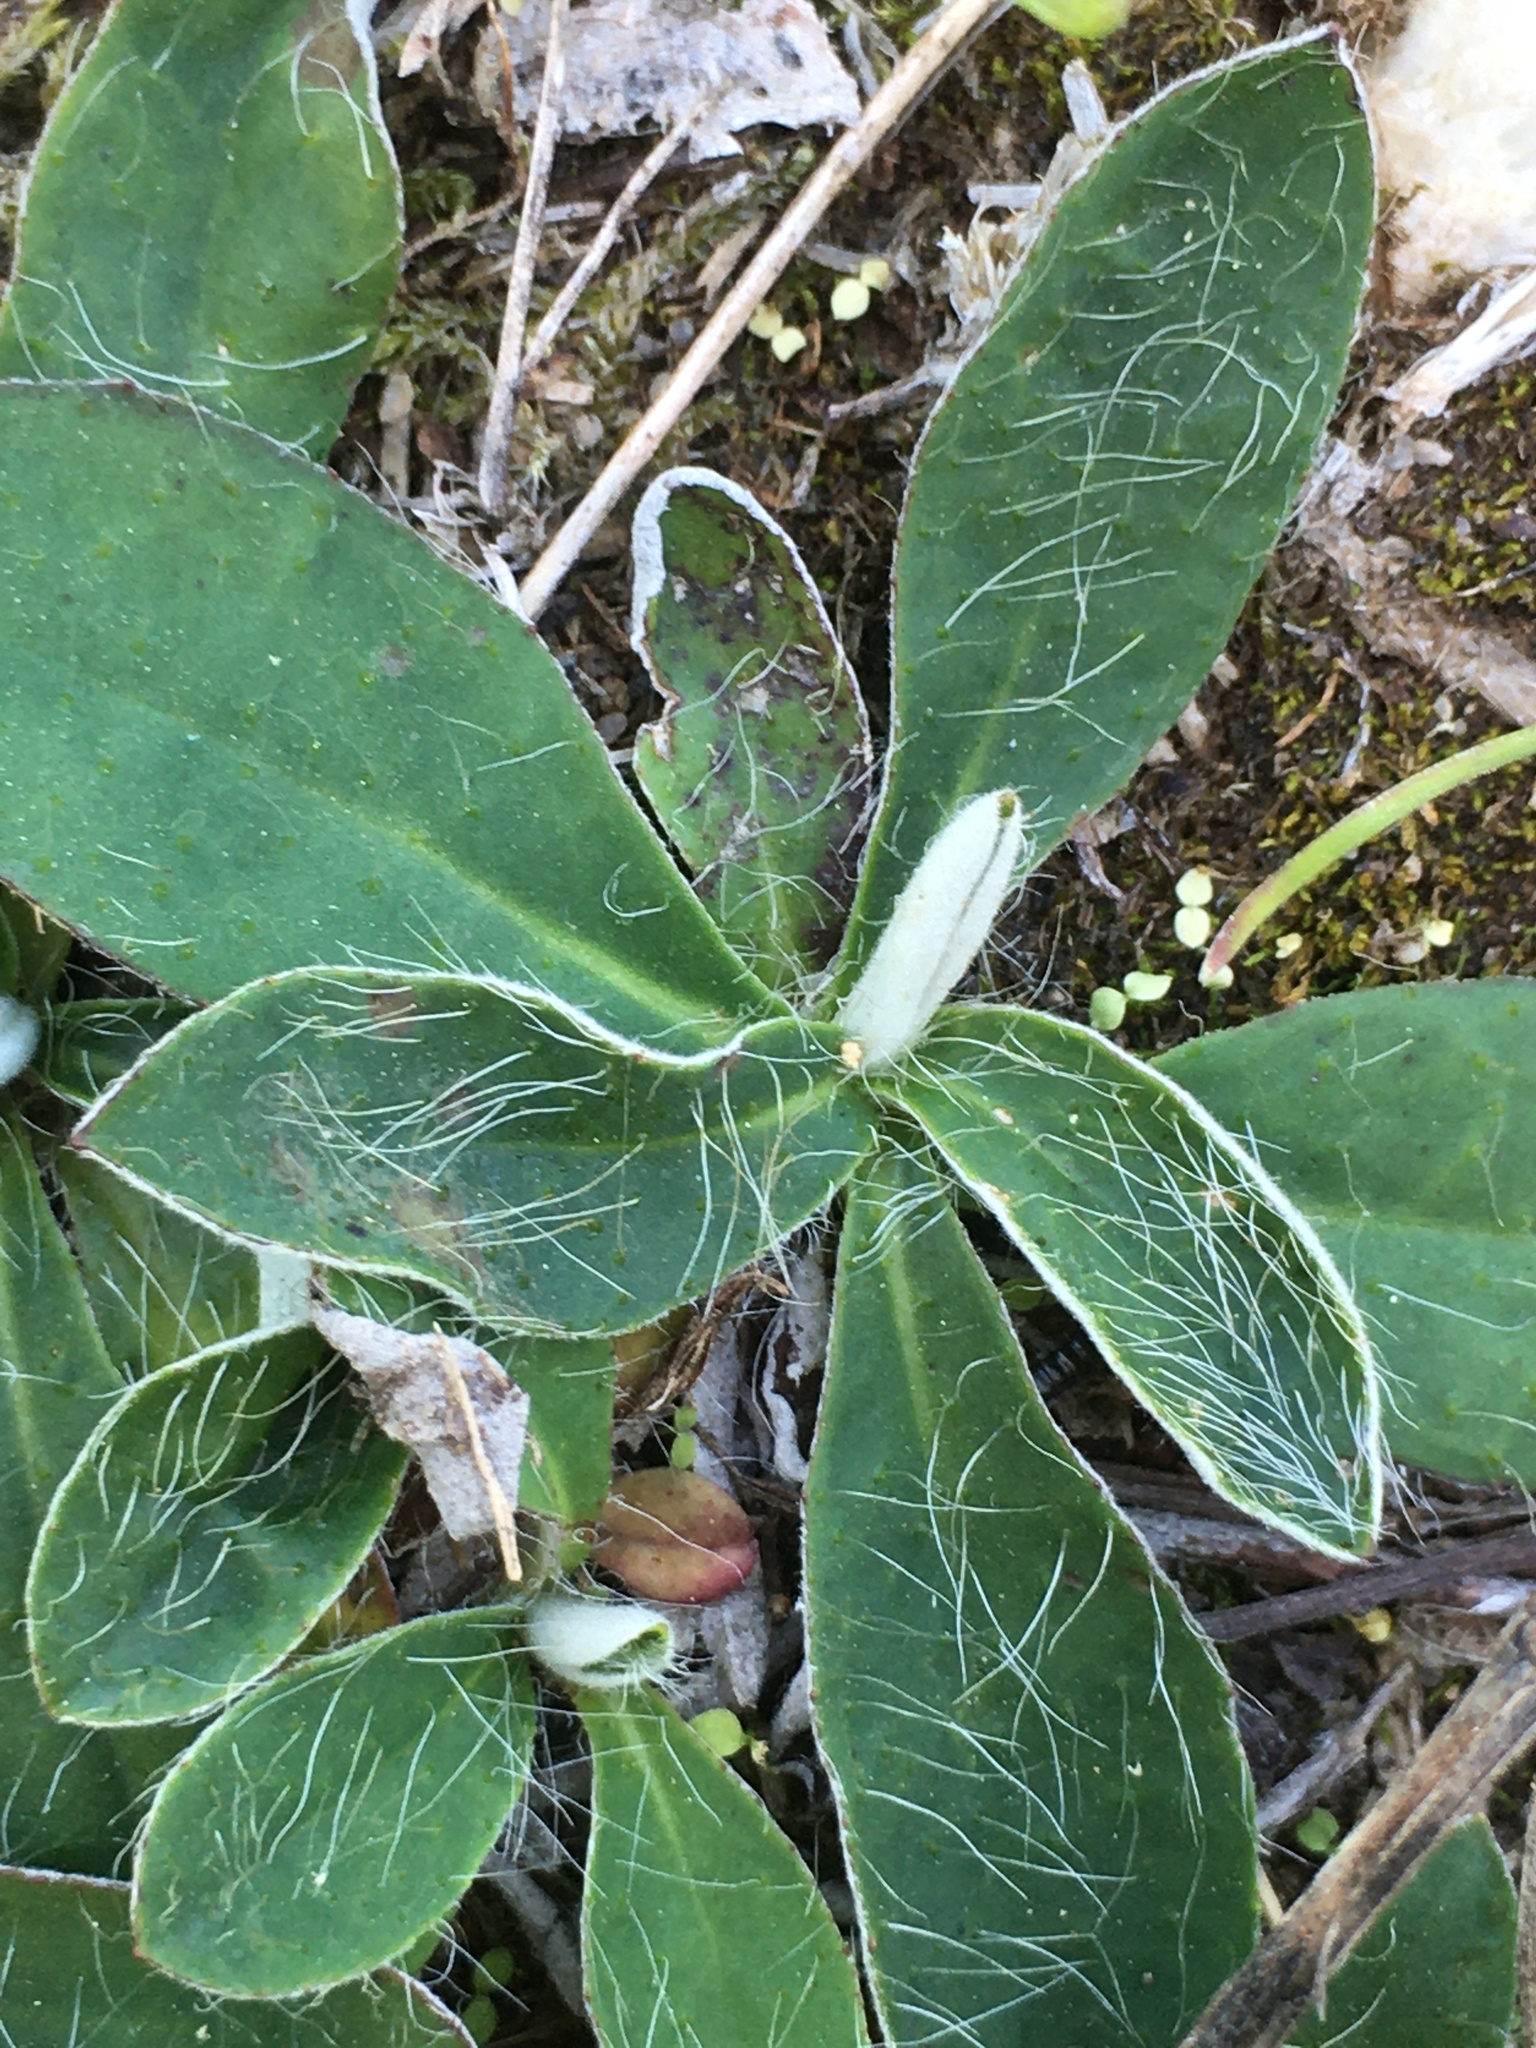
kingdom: Plantae
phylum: Tracheophyta
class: Magnoliopsida
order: Asterales
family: Asteraceae
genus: Pilosella
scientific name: Pilosella officinarum
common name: Mouse-ear hawkweed
